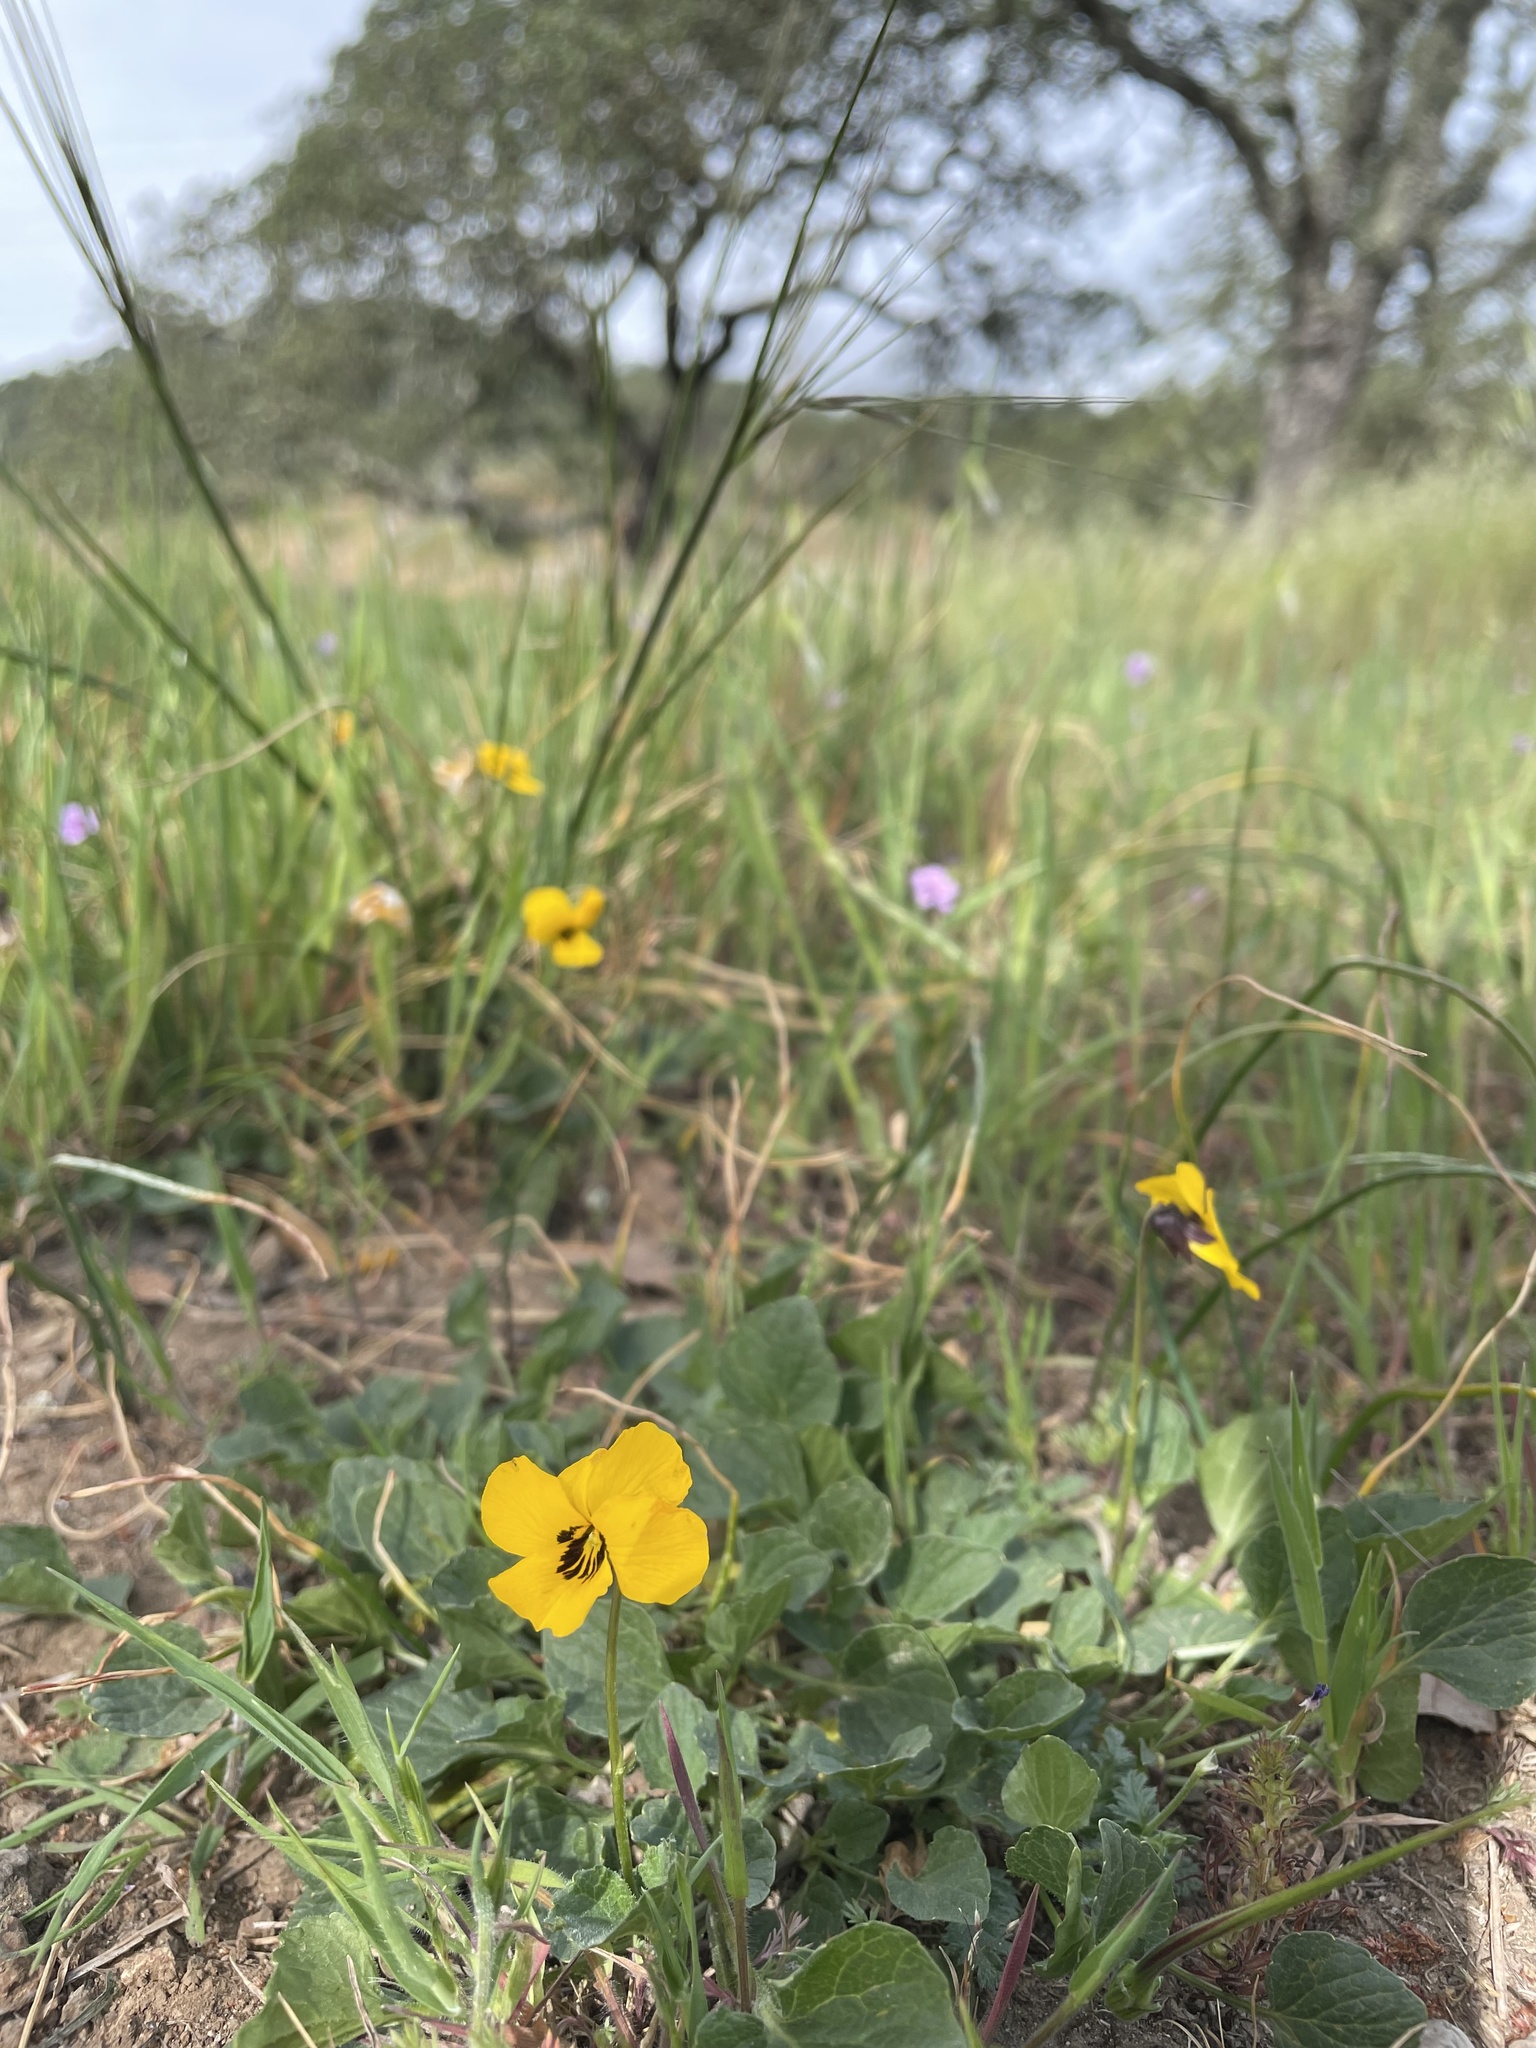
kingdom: Plantae
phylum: Tracheophyta
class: Magnoliopsida
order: Malpighiales
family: Violaceae
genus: Viola
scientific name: Viola pedunculata
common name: California golden violet
